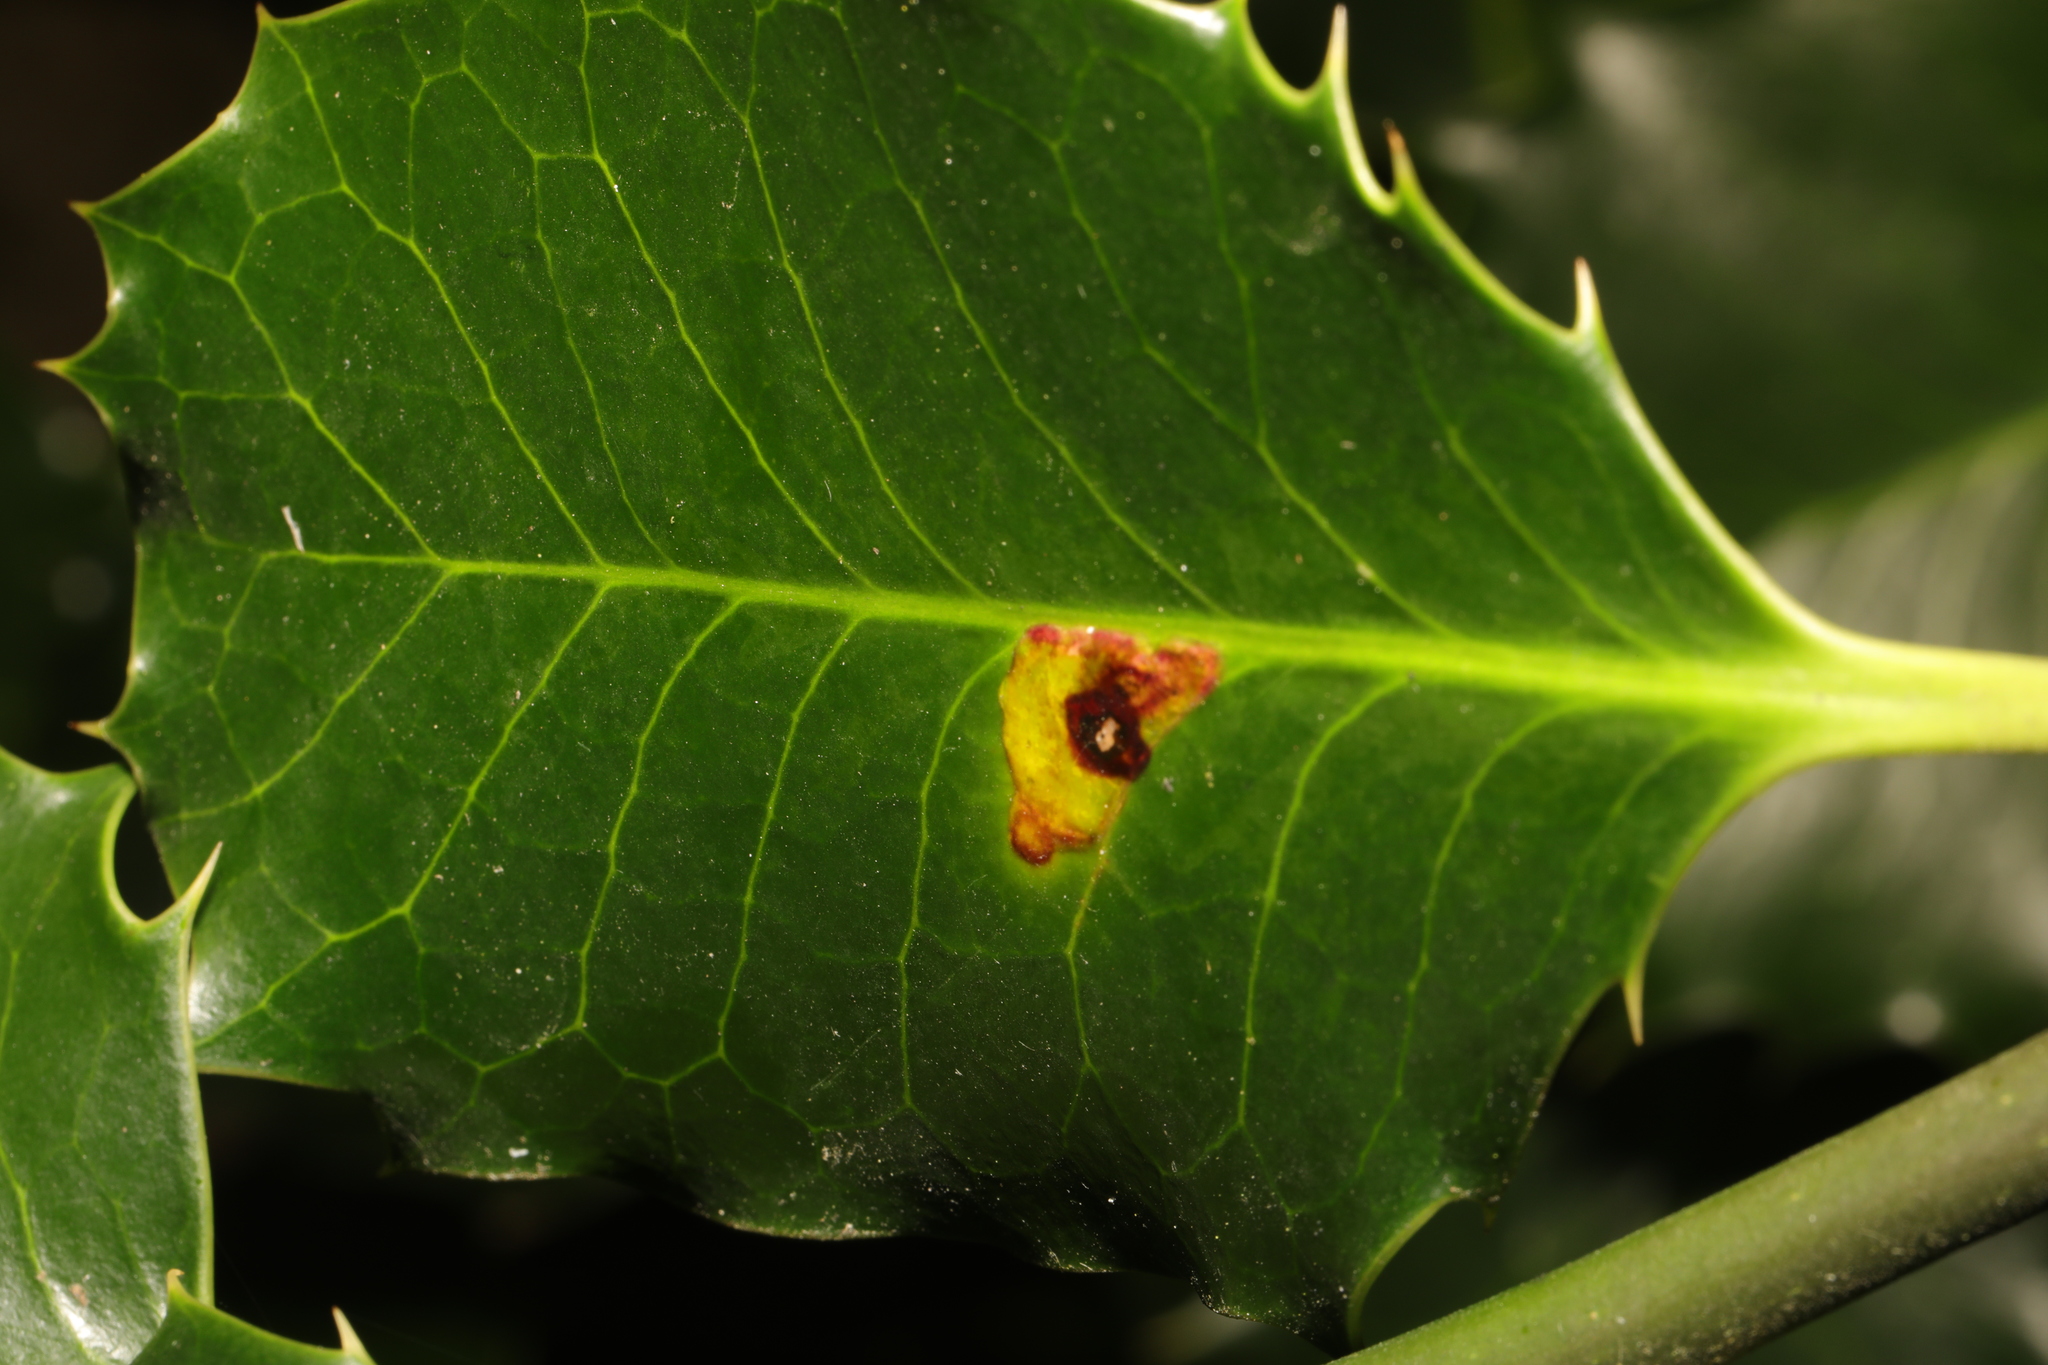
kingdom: Animalia
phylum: Arthropoda
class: Insecta
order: Diptera
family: Agromyzidae
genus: Phytomyza
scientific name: Phytomyza ilicis
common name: Holly leafminer
